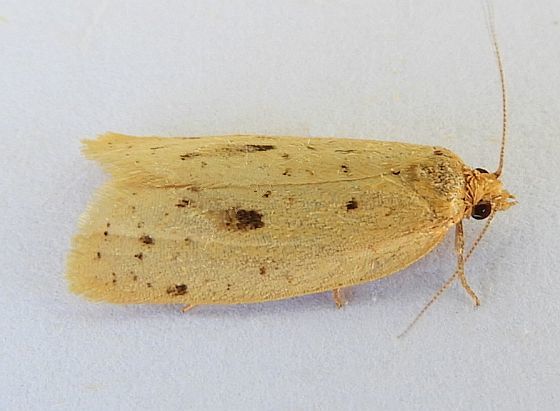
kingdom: Animalia
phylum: Arthropoda
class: Insecta
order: Lepidoptera
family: Tortricidae
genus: Clepsis
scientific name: Clepsis anderslaneyii
